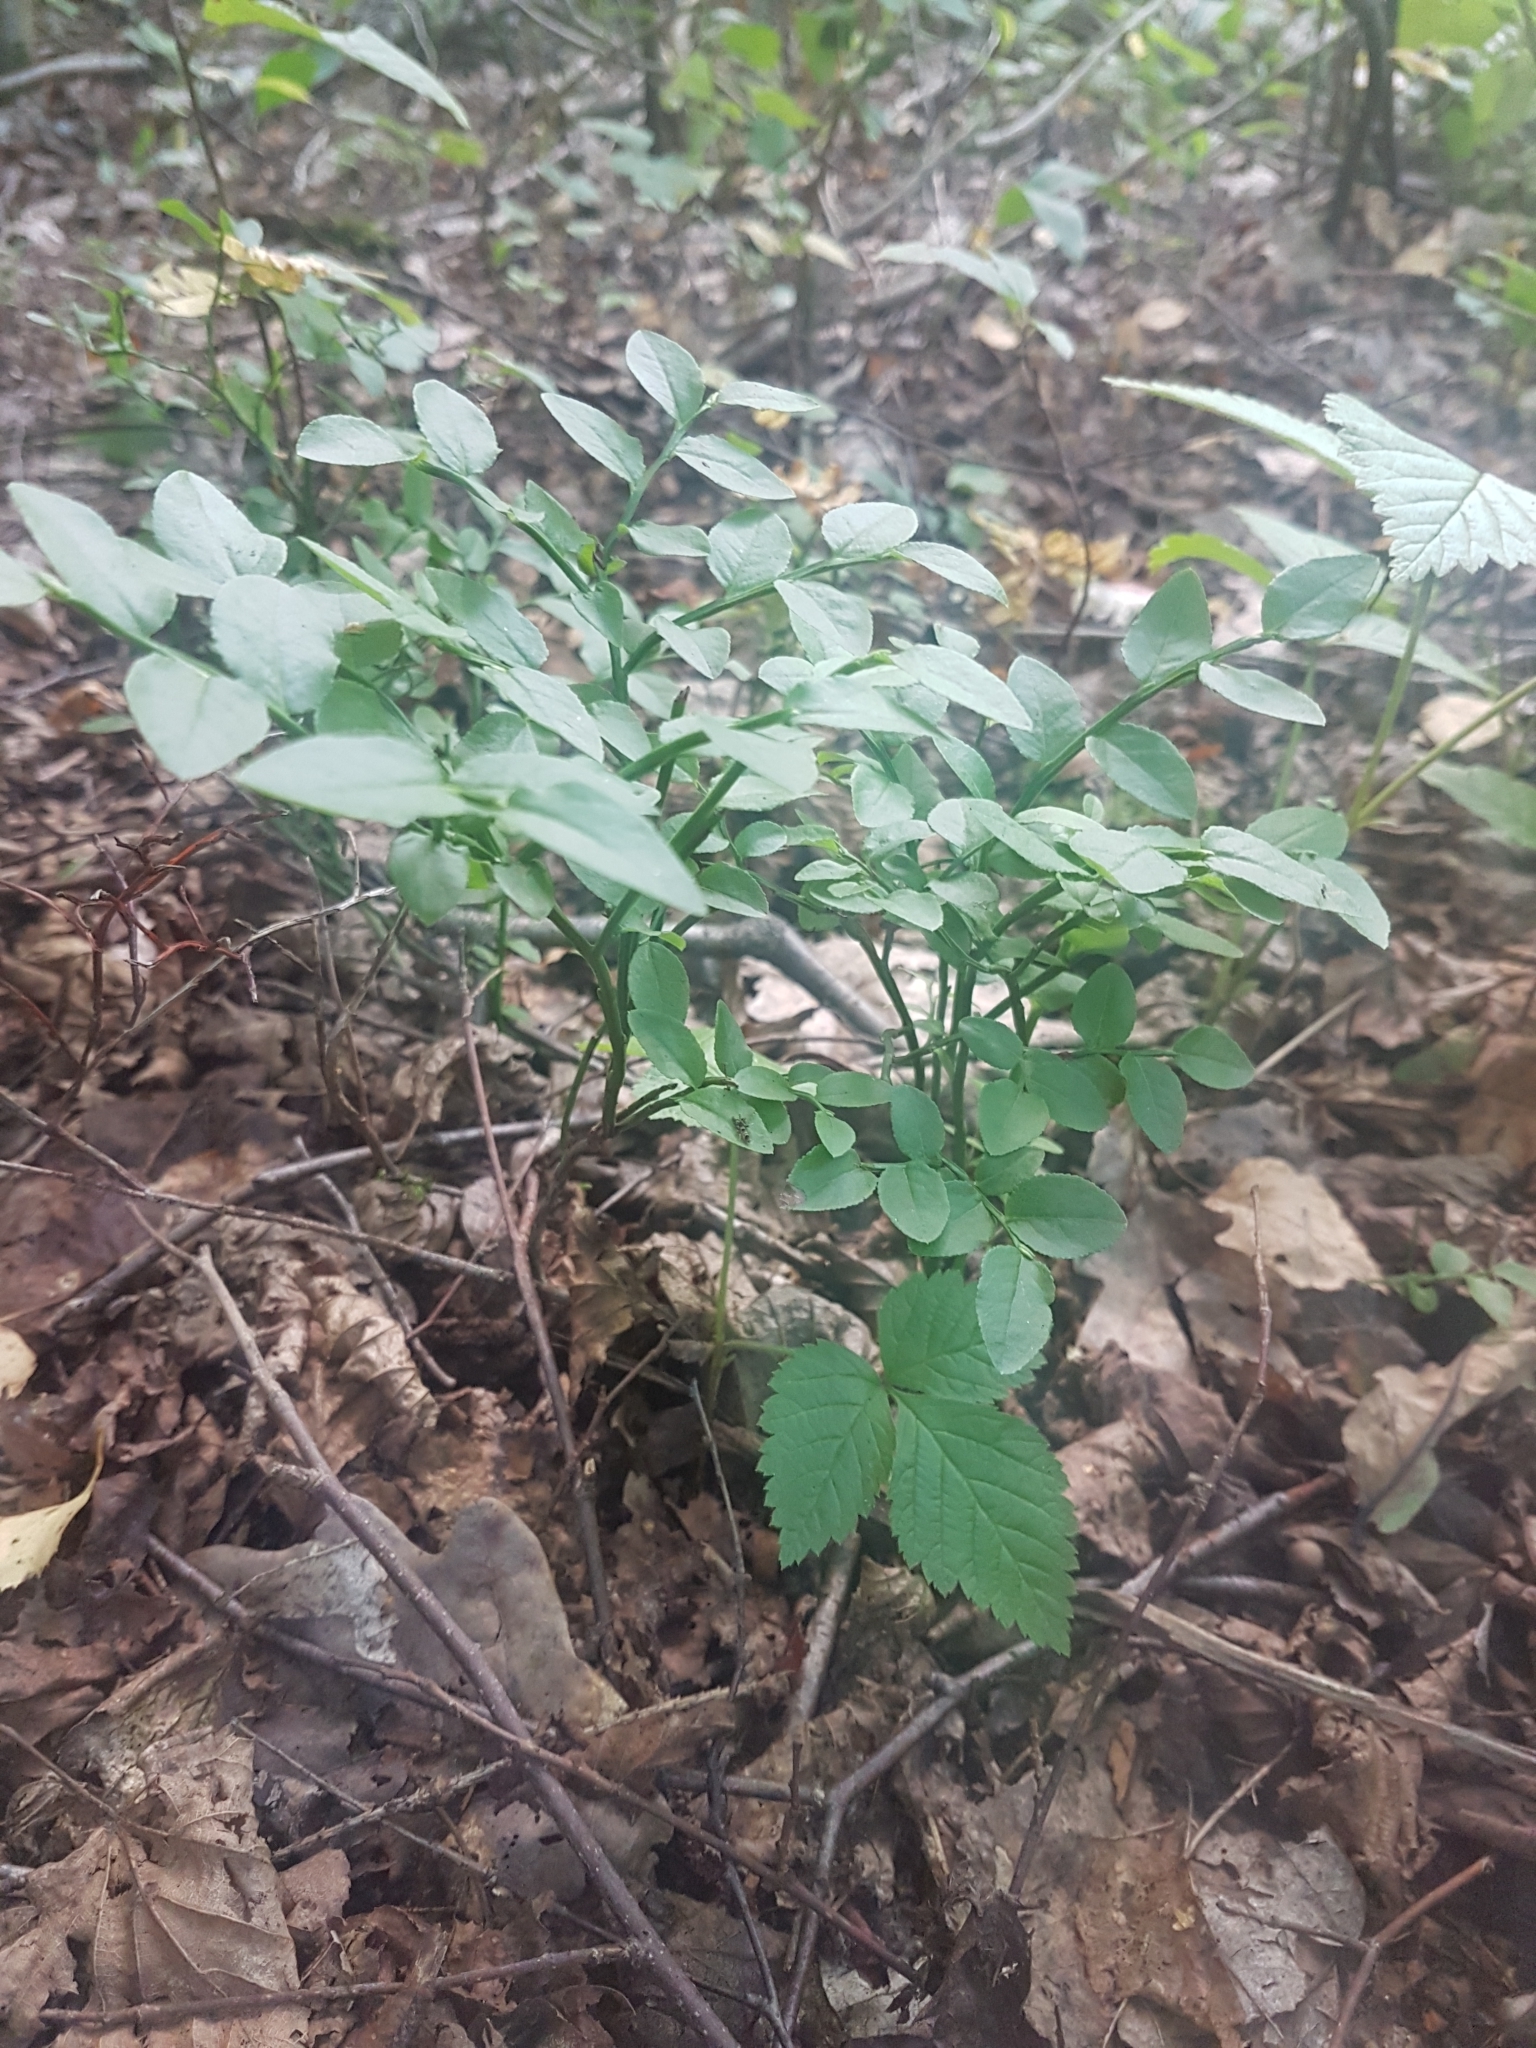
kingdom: Plantae
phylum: Tracheophyta
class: Magnoliopsida
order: Ericales
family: Ericaceae
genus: Vaccinium
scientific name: Vaccinium myrtillus
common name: Bilberry
